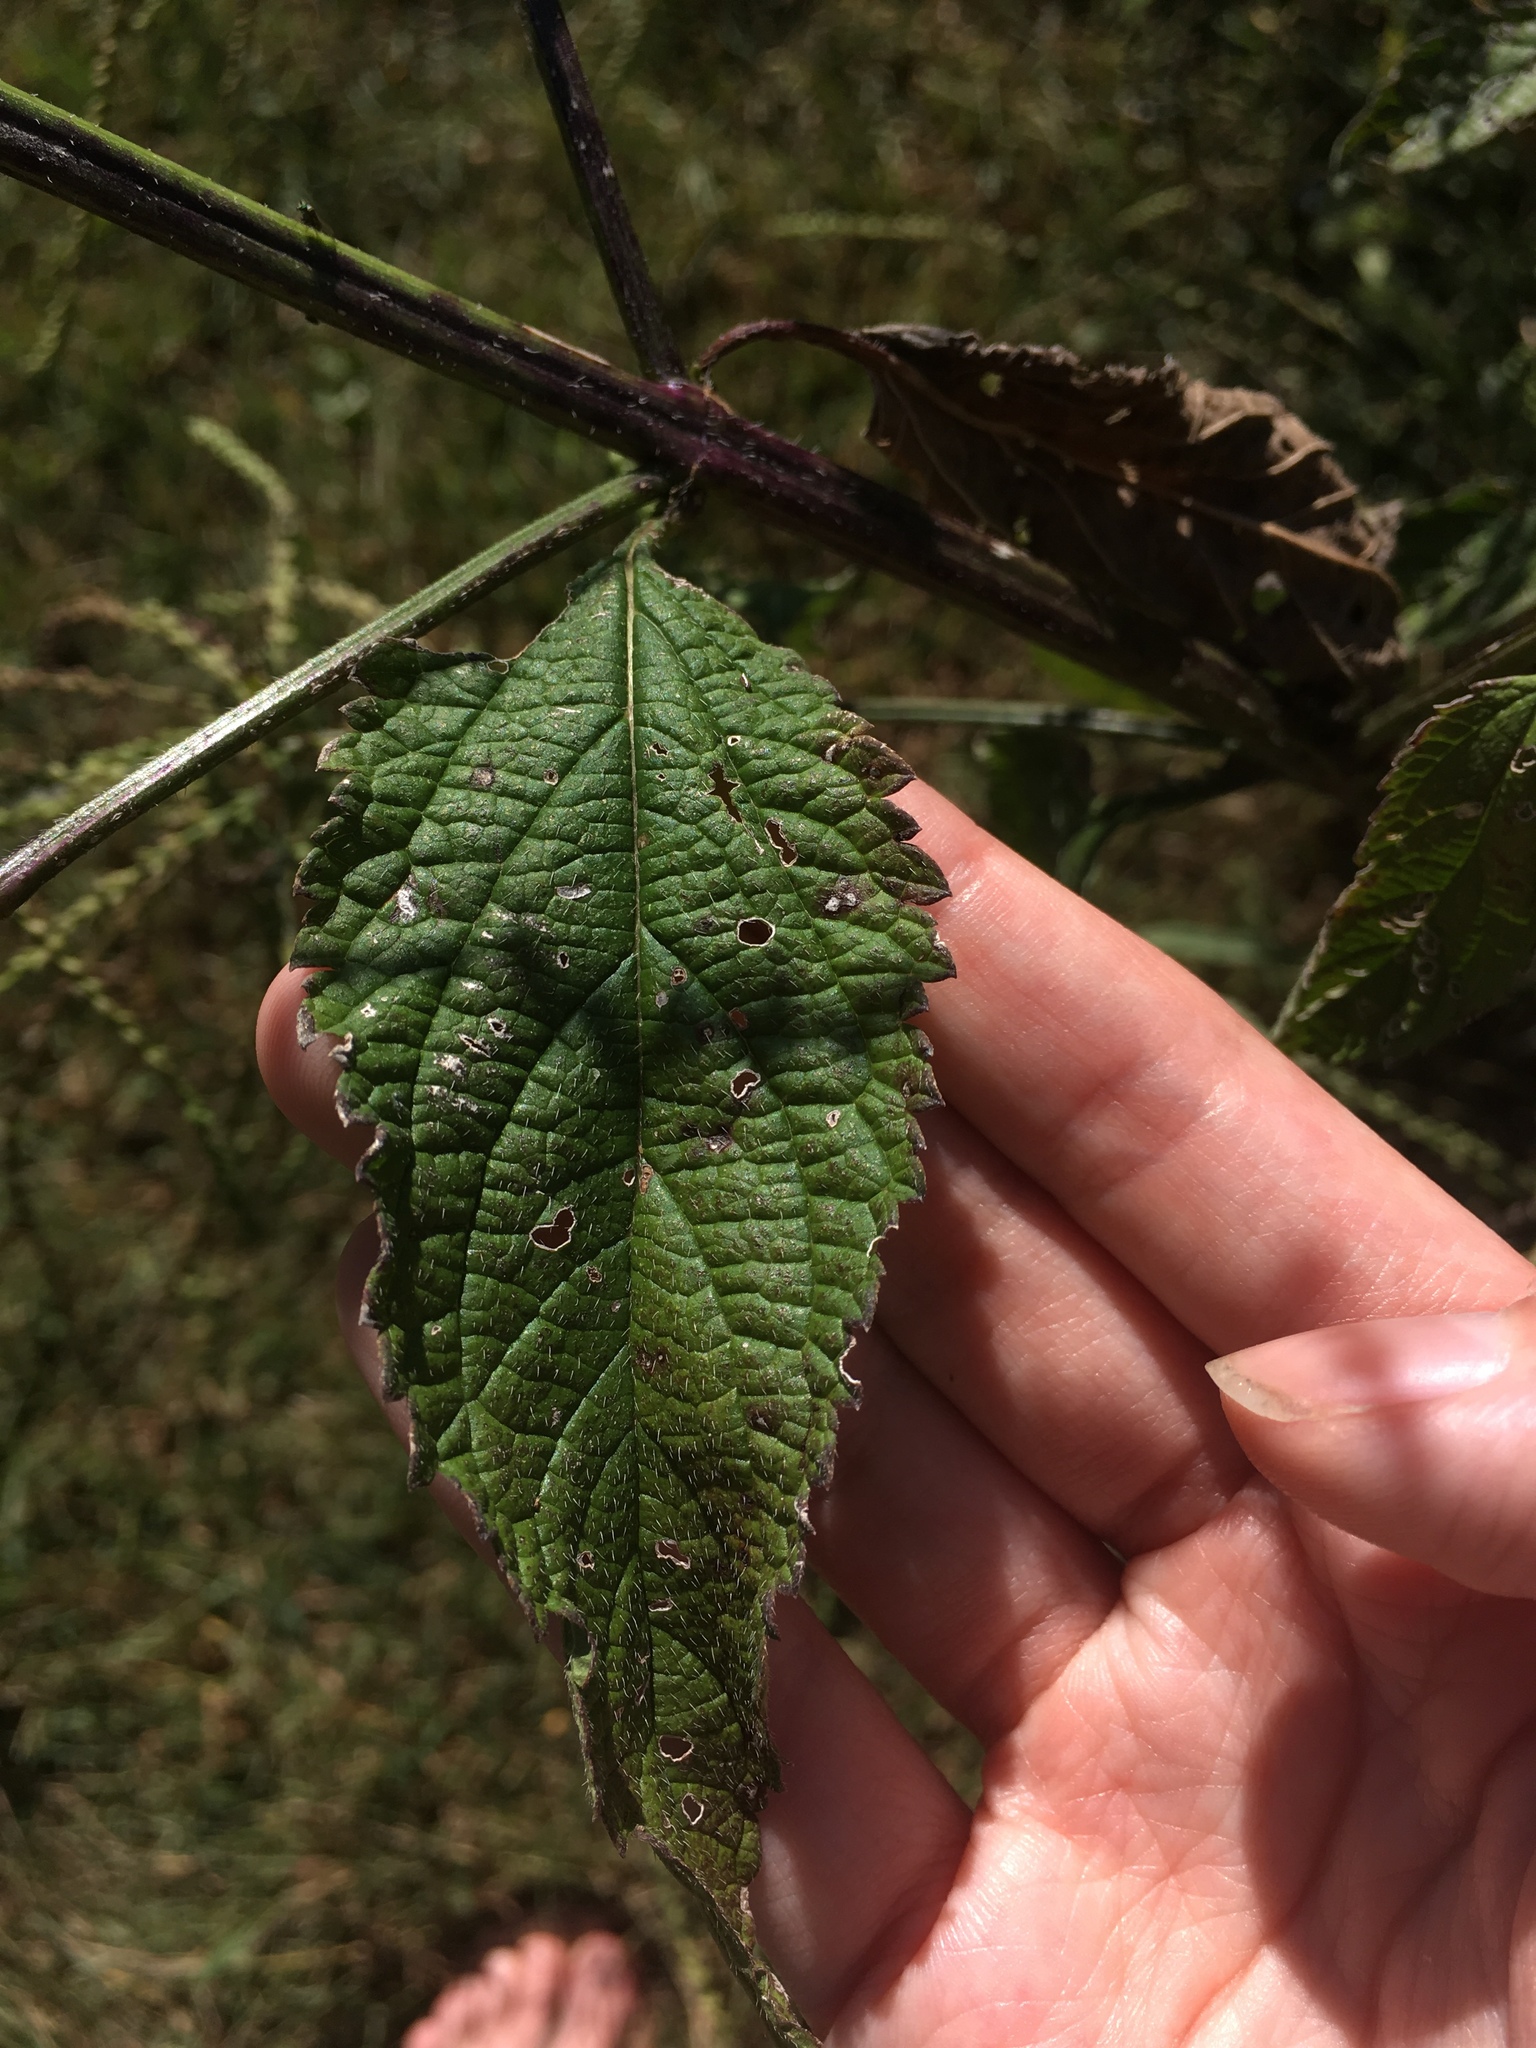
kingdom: Plantae
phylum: Tracheophyta
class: Magnoliopsida
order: Lamiales
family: Verbenaceae
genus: Verbena
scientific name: Verbena urticifolia
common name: Nettle-leaved vervain
